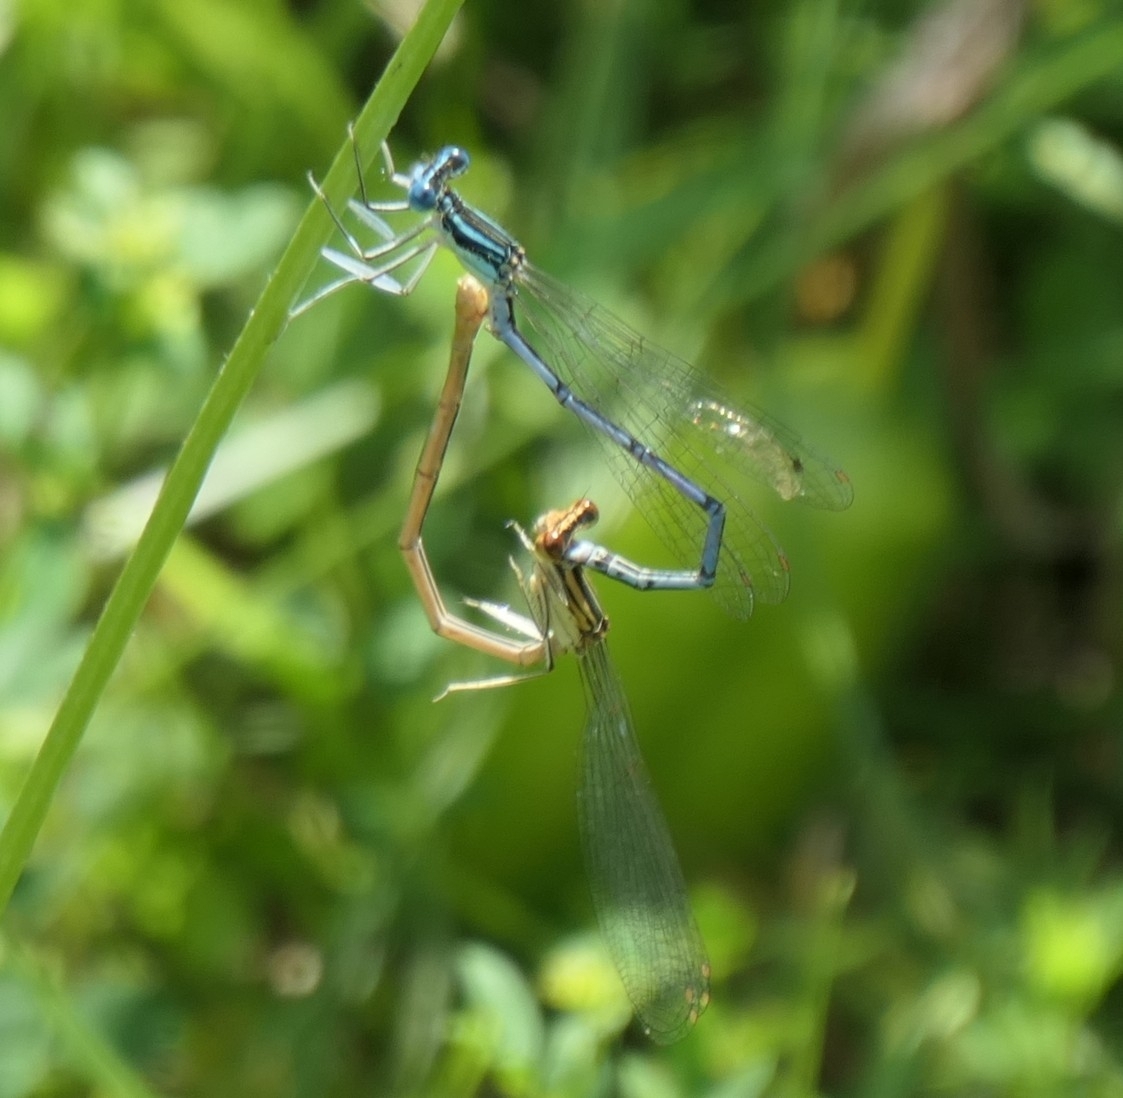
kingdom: Animalia
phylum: Arthropoda
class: Insecta
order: Odonata
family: Platycnemididae
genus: Platycnemis
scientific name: Platycnemis pennipes
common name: White-legged damselfly
